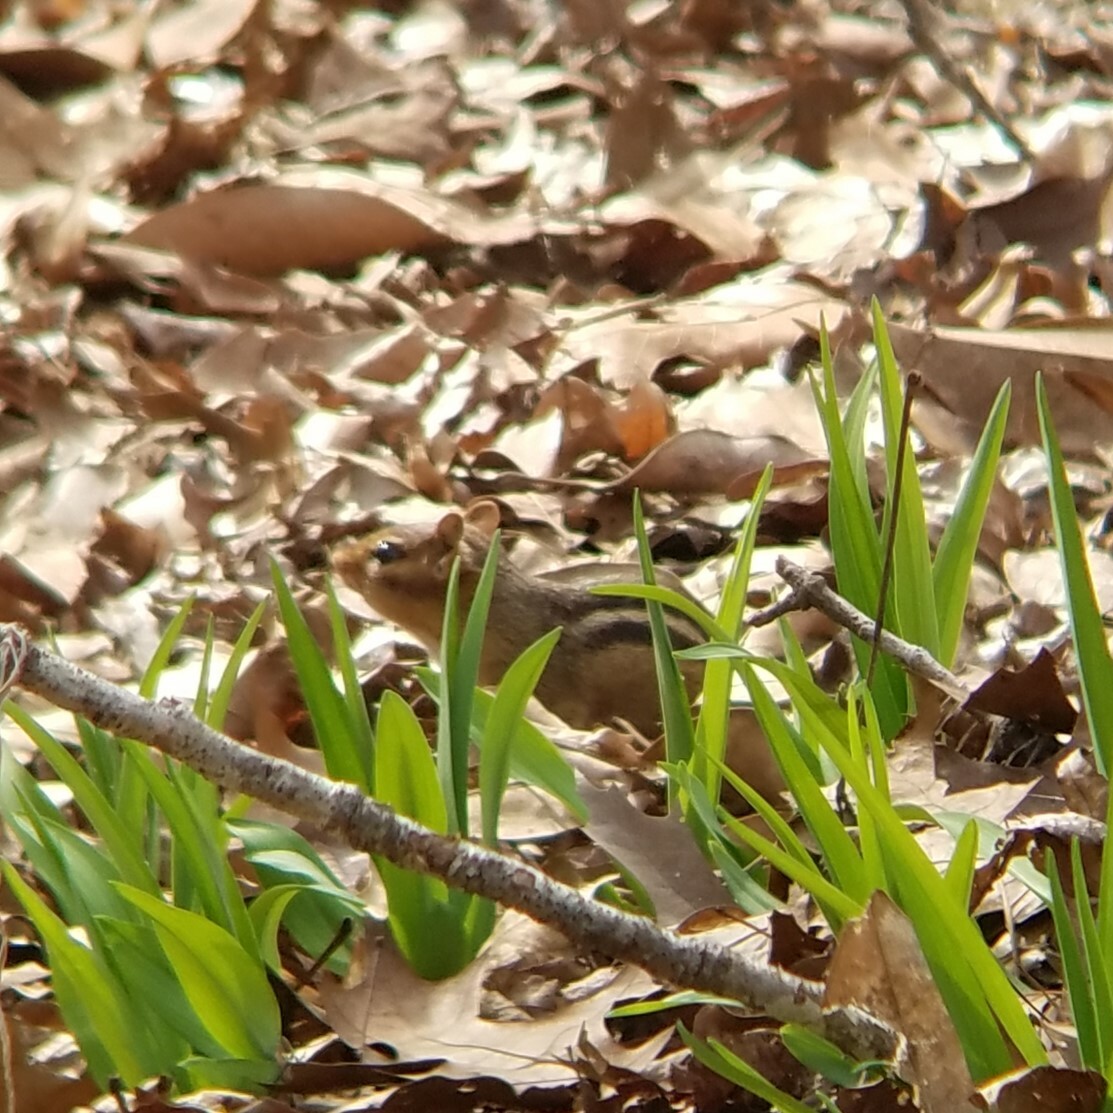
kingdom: Animalia
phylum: Chordata
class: Mammalia
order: Rodentia
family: Sciuridae
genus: Tamias
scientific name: Tamias striatus
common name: Eastern chipmunk
